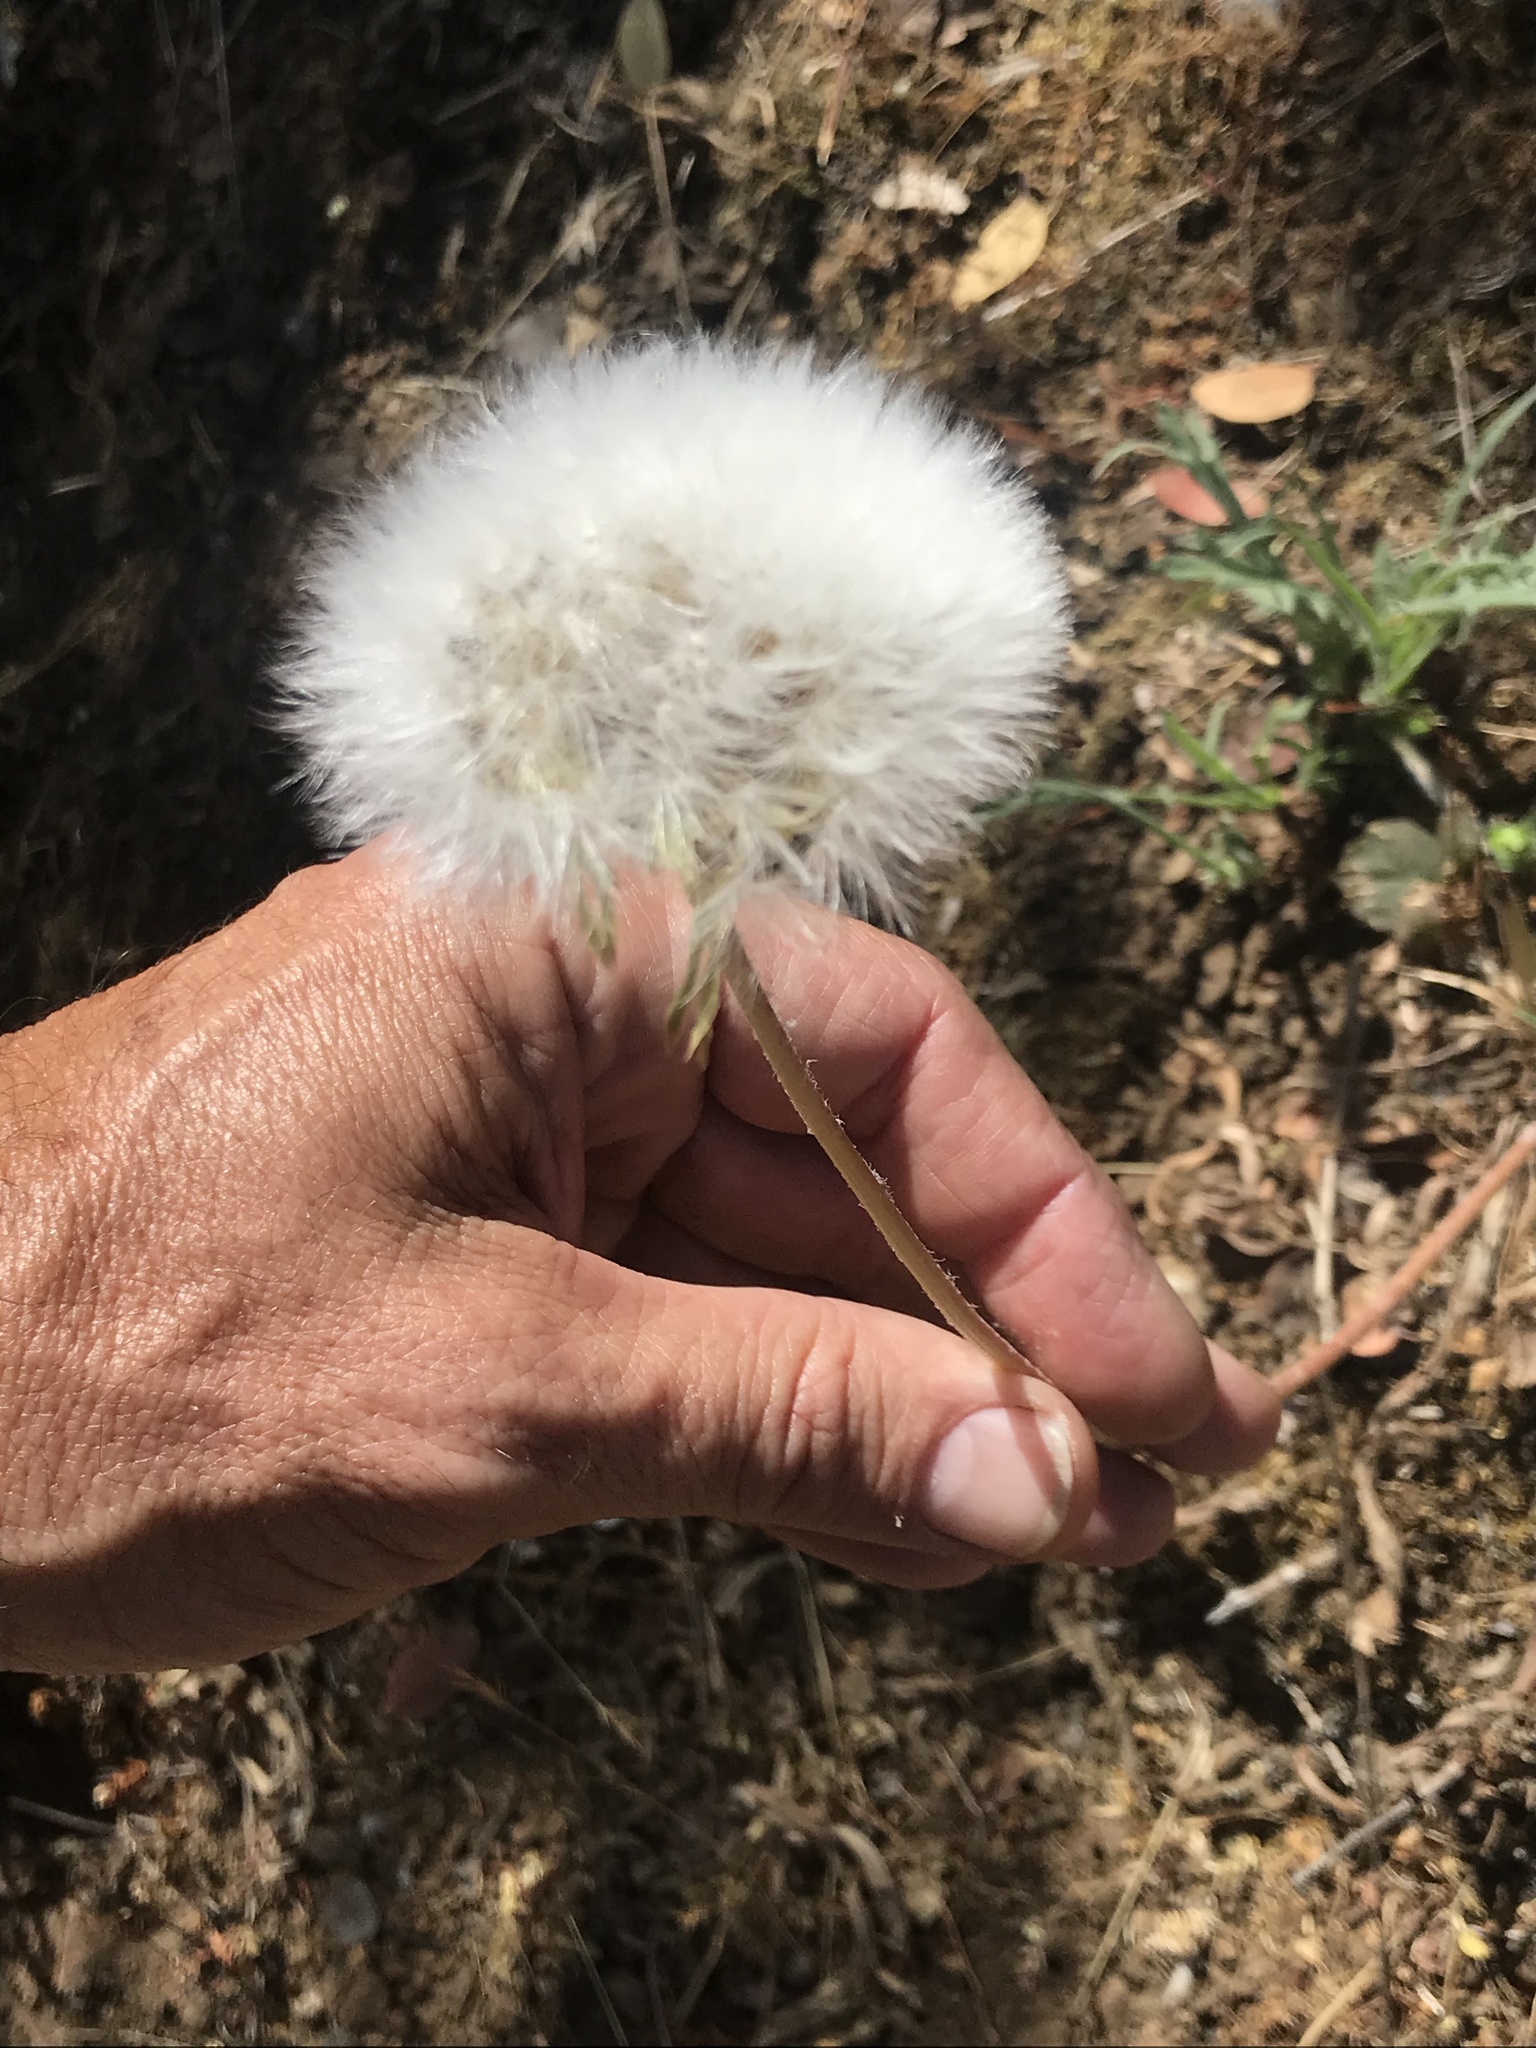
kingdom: Plantae
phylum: Tracheophyta
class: Magnoliopsida
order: Asterales
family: Asteraceae
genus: Agoseris
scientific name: Agoseris grandiflora
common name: Grassland agoseris
